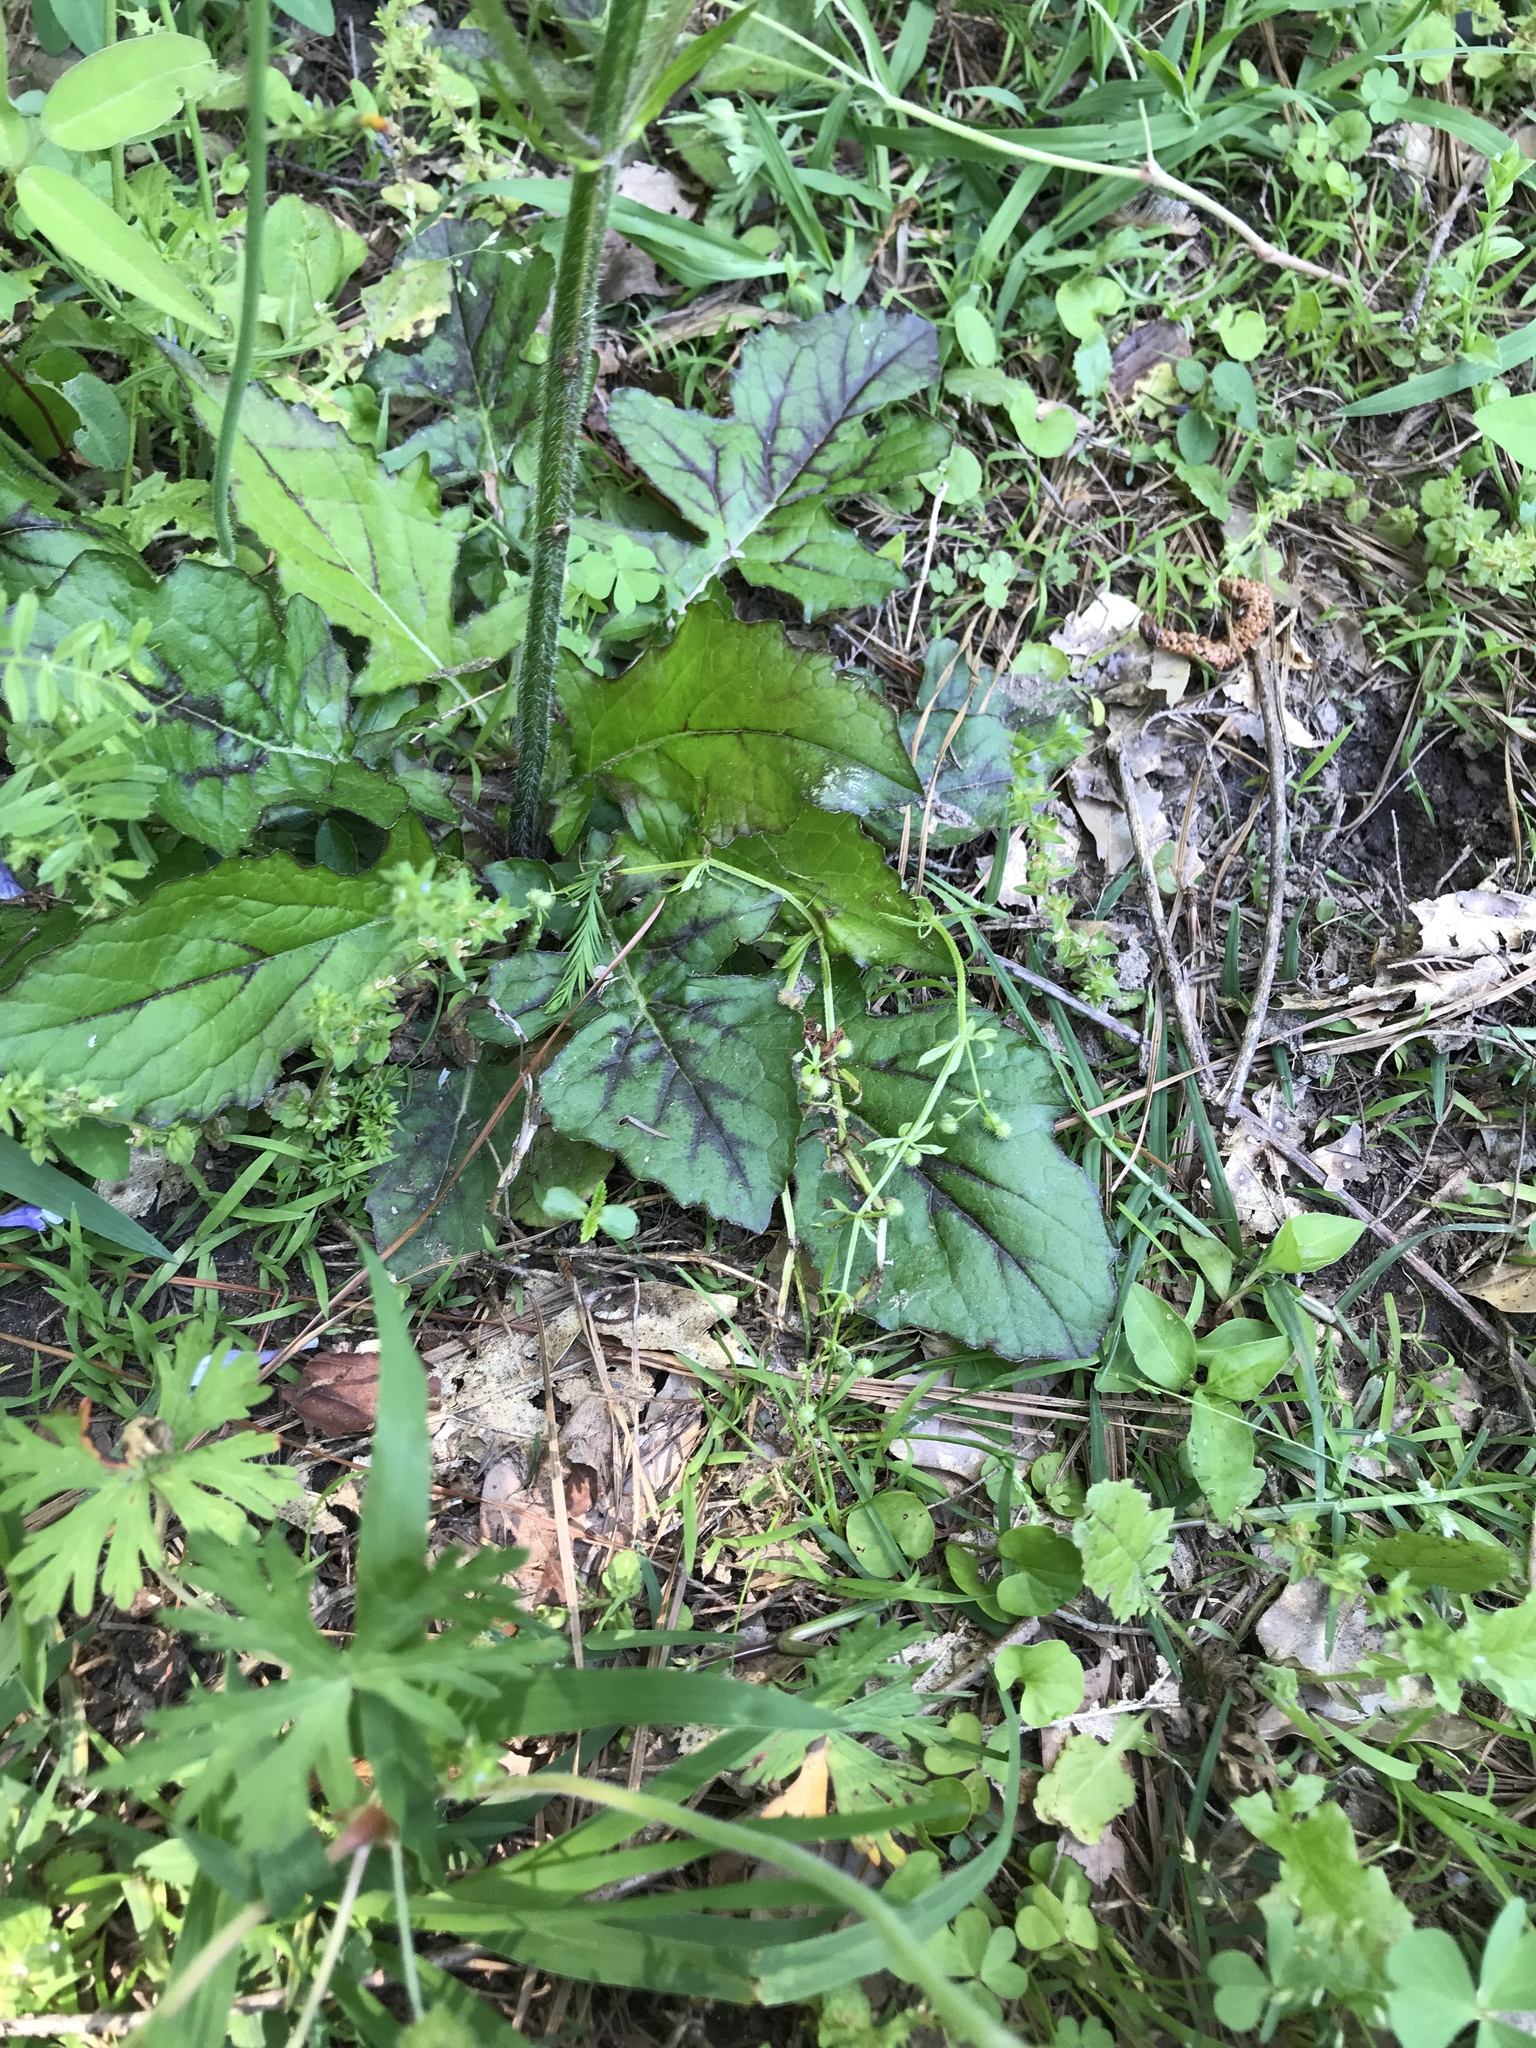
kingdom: Plantae
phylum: Tracheophyta
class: Magnoliopsida
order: Lamiales
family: Lamiaceae
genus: Salvia
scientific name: Salvia lyrata
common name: Cancerweed
